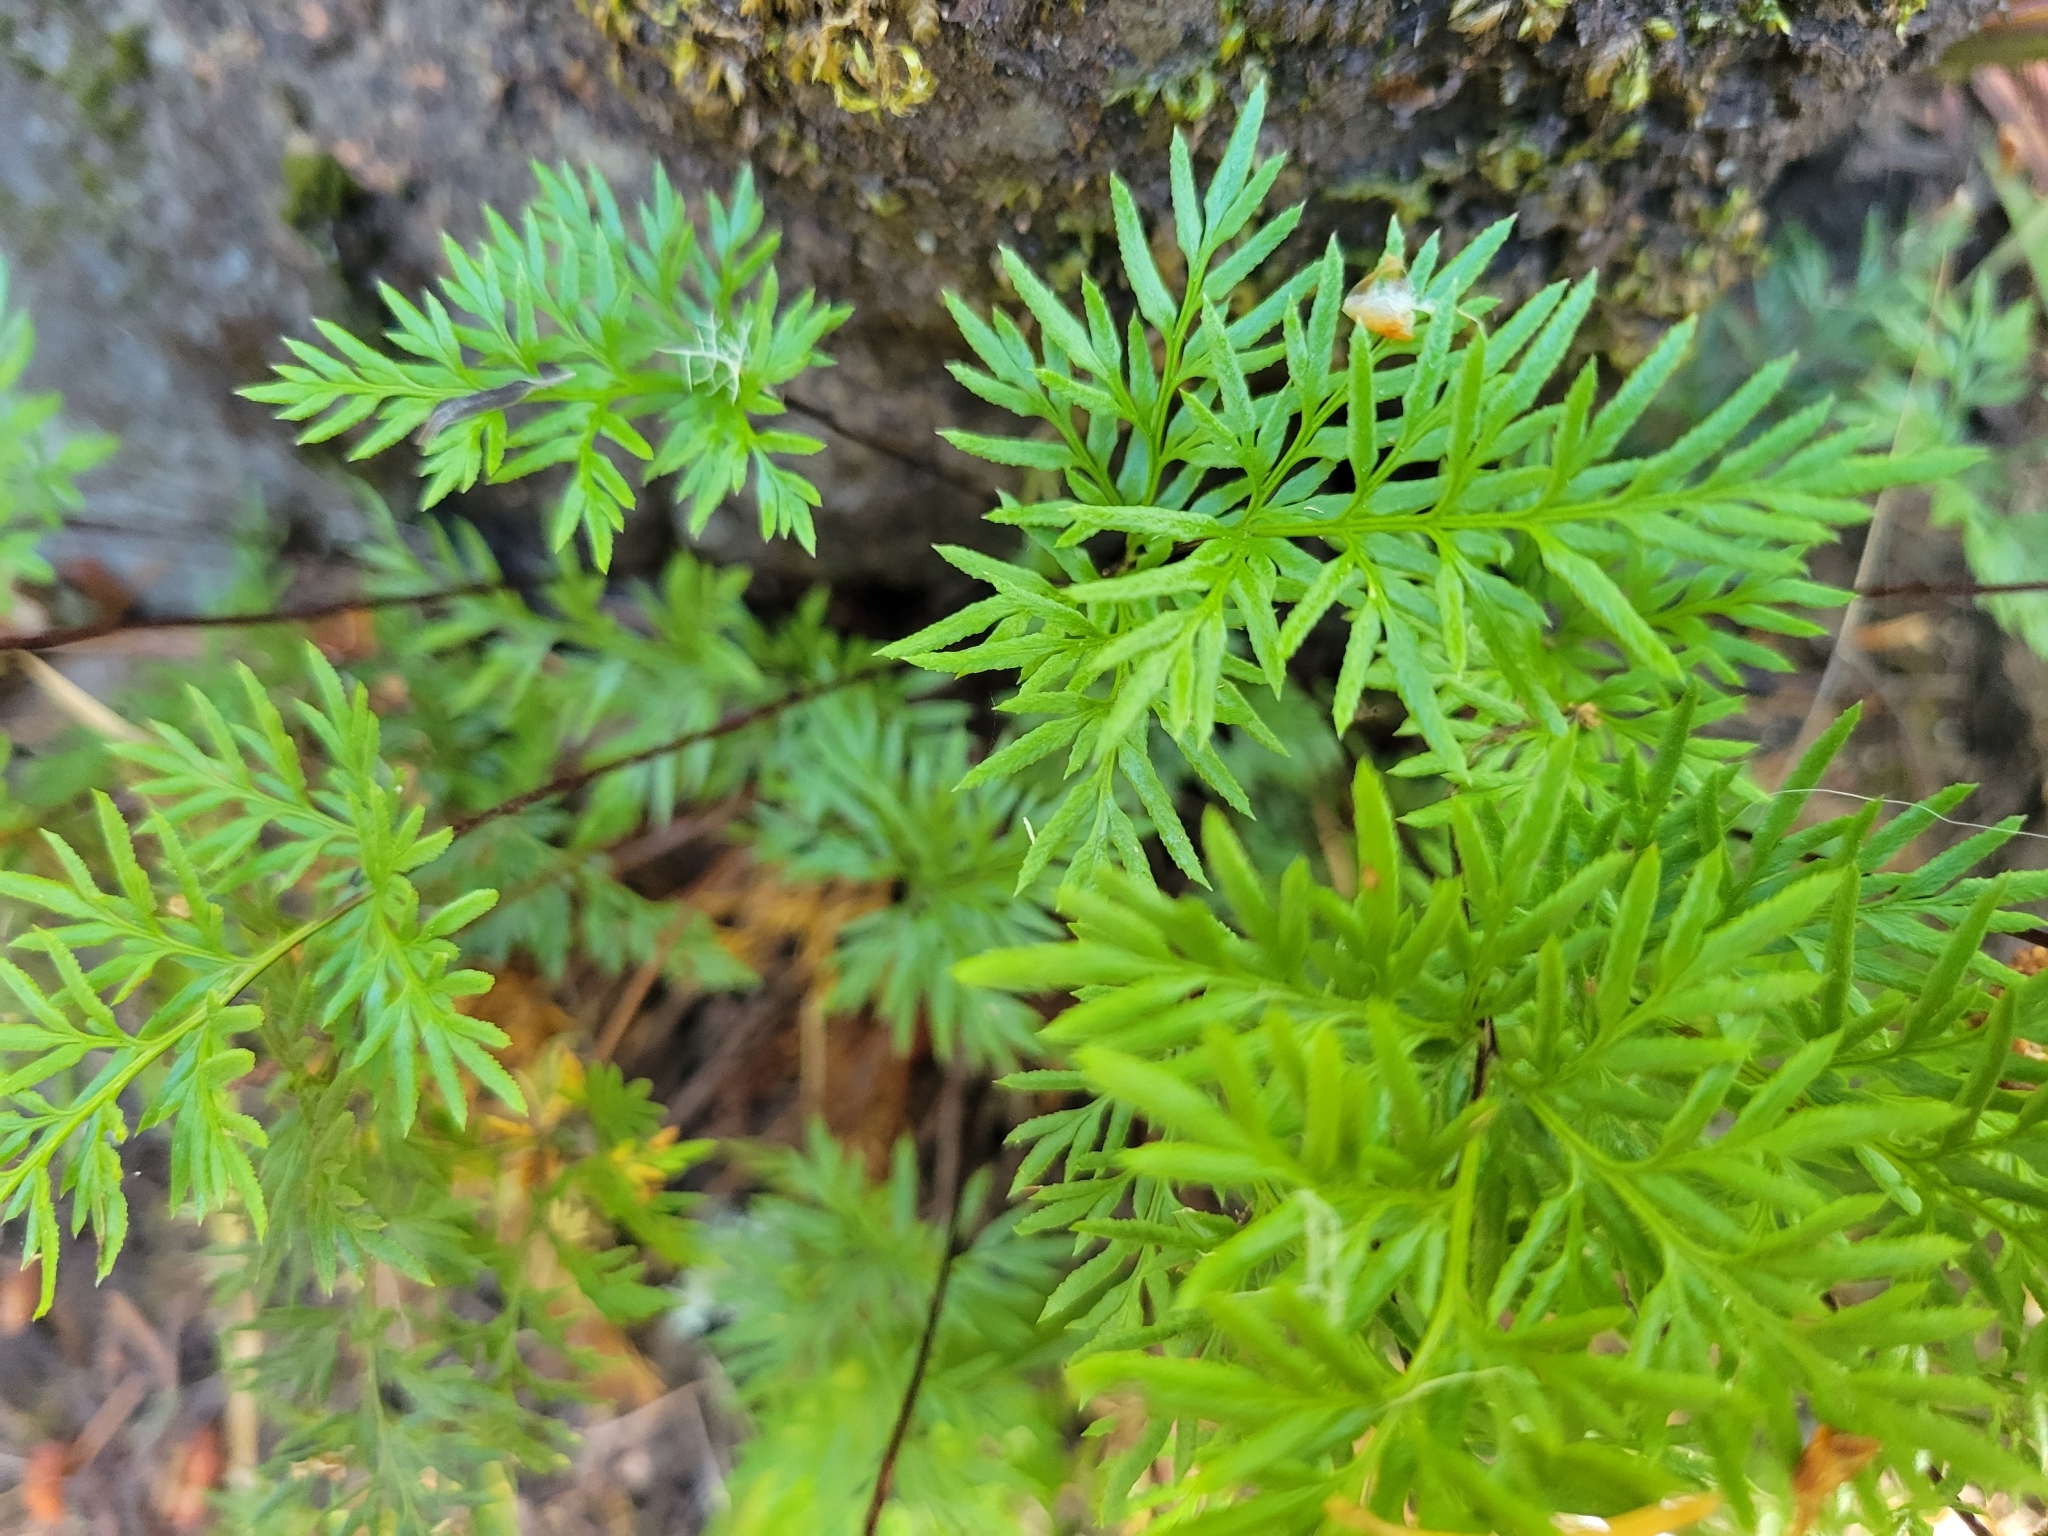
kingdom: Plantae
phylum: Tracheophyta
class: Polypodiopsida
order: Polypodiales
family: Pteridaceae
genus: Aspidotis
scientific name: Aspidotis densa
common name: Indian's dream
